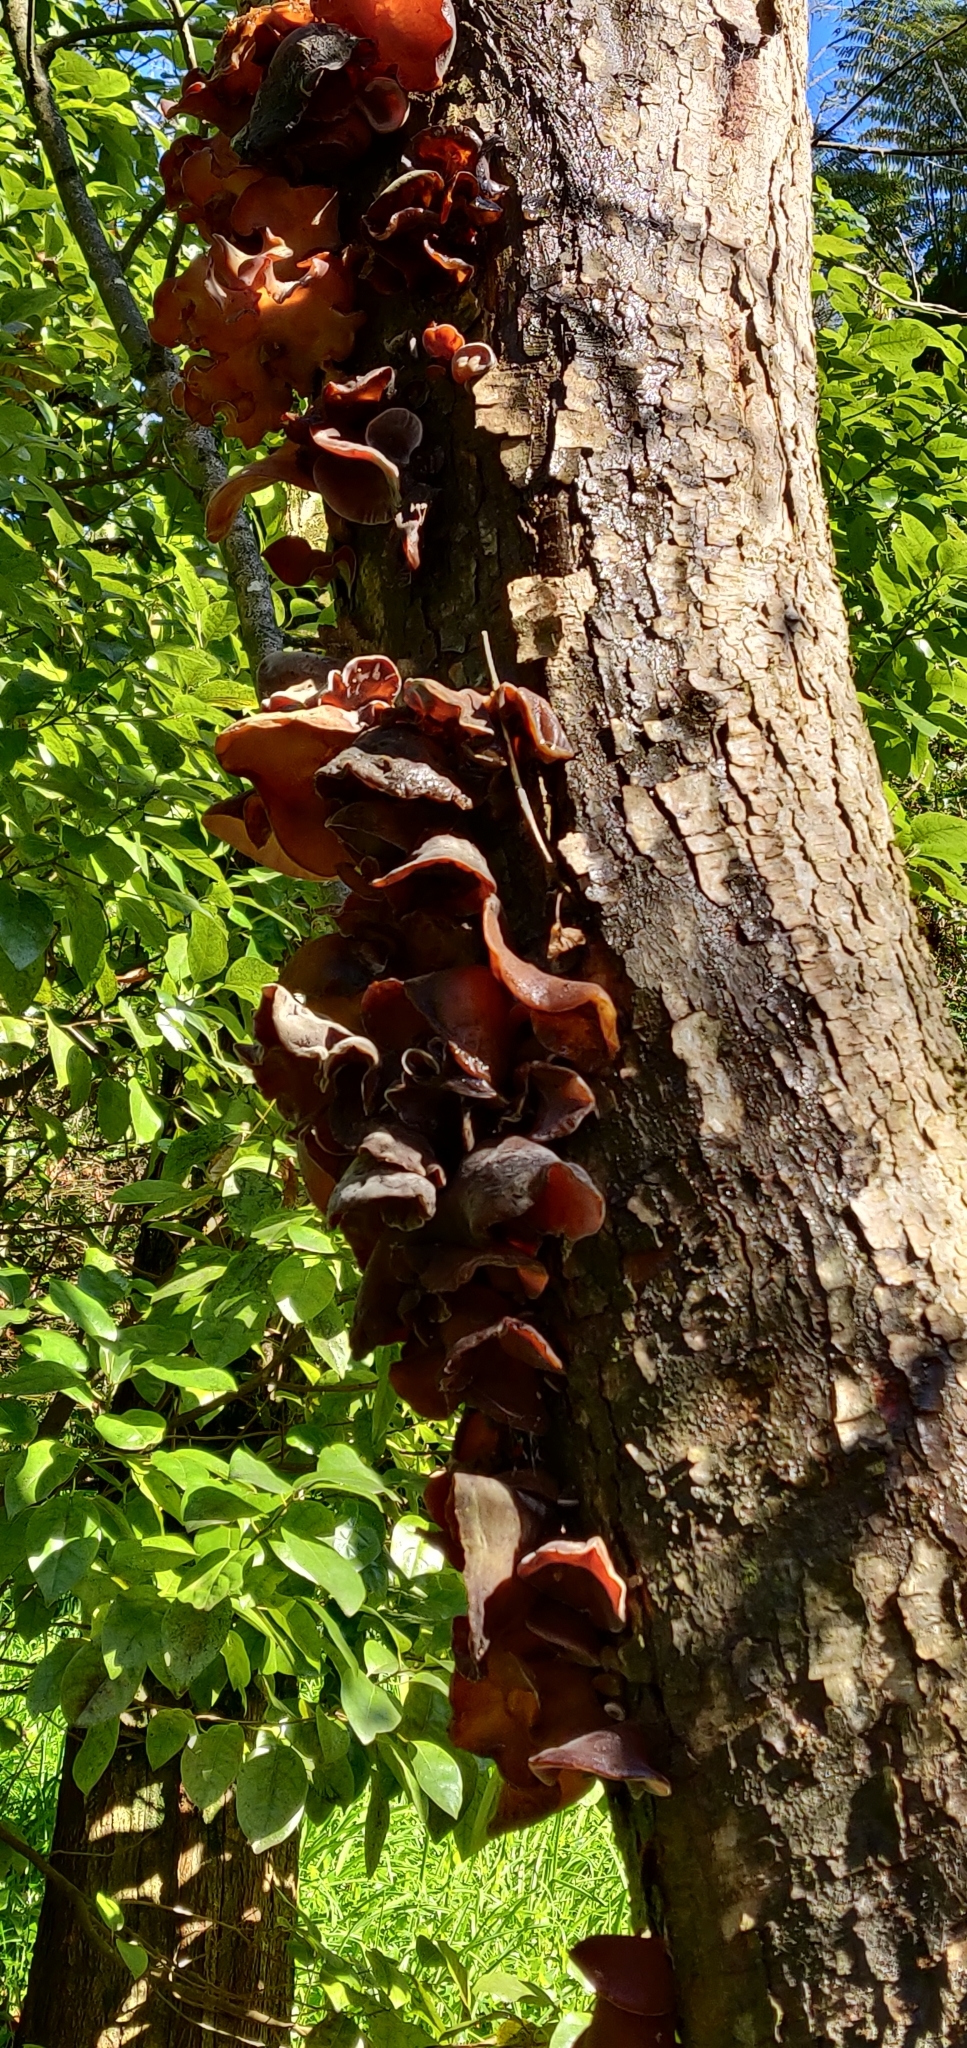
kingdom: Fungi
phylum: Basidiomycota
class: Agaricomycetes
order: Auriculariales
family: Auriculariaceae
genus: Auricularia
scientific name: Auricularia cornea
